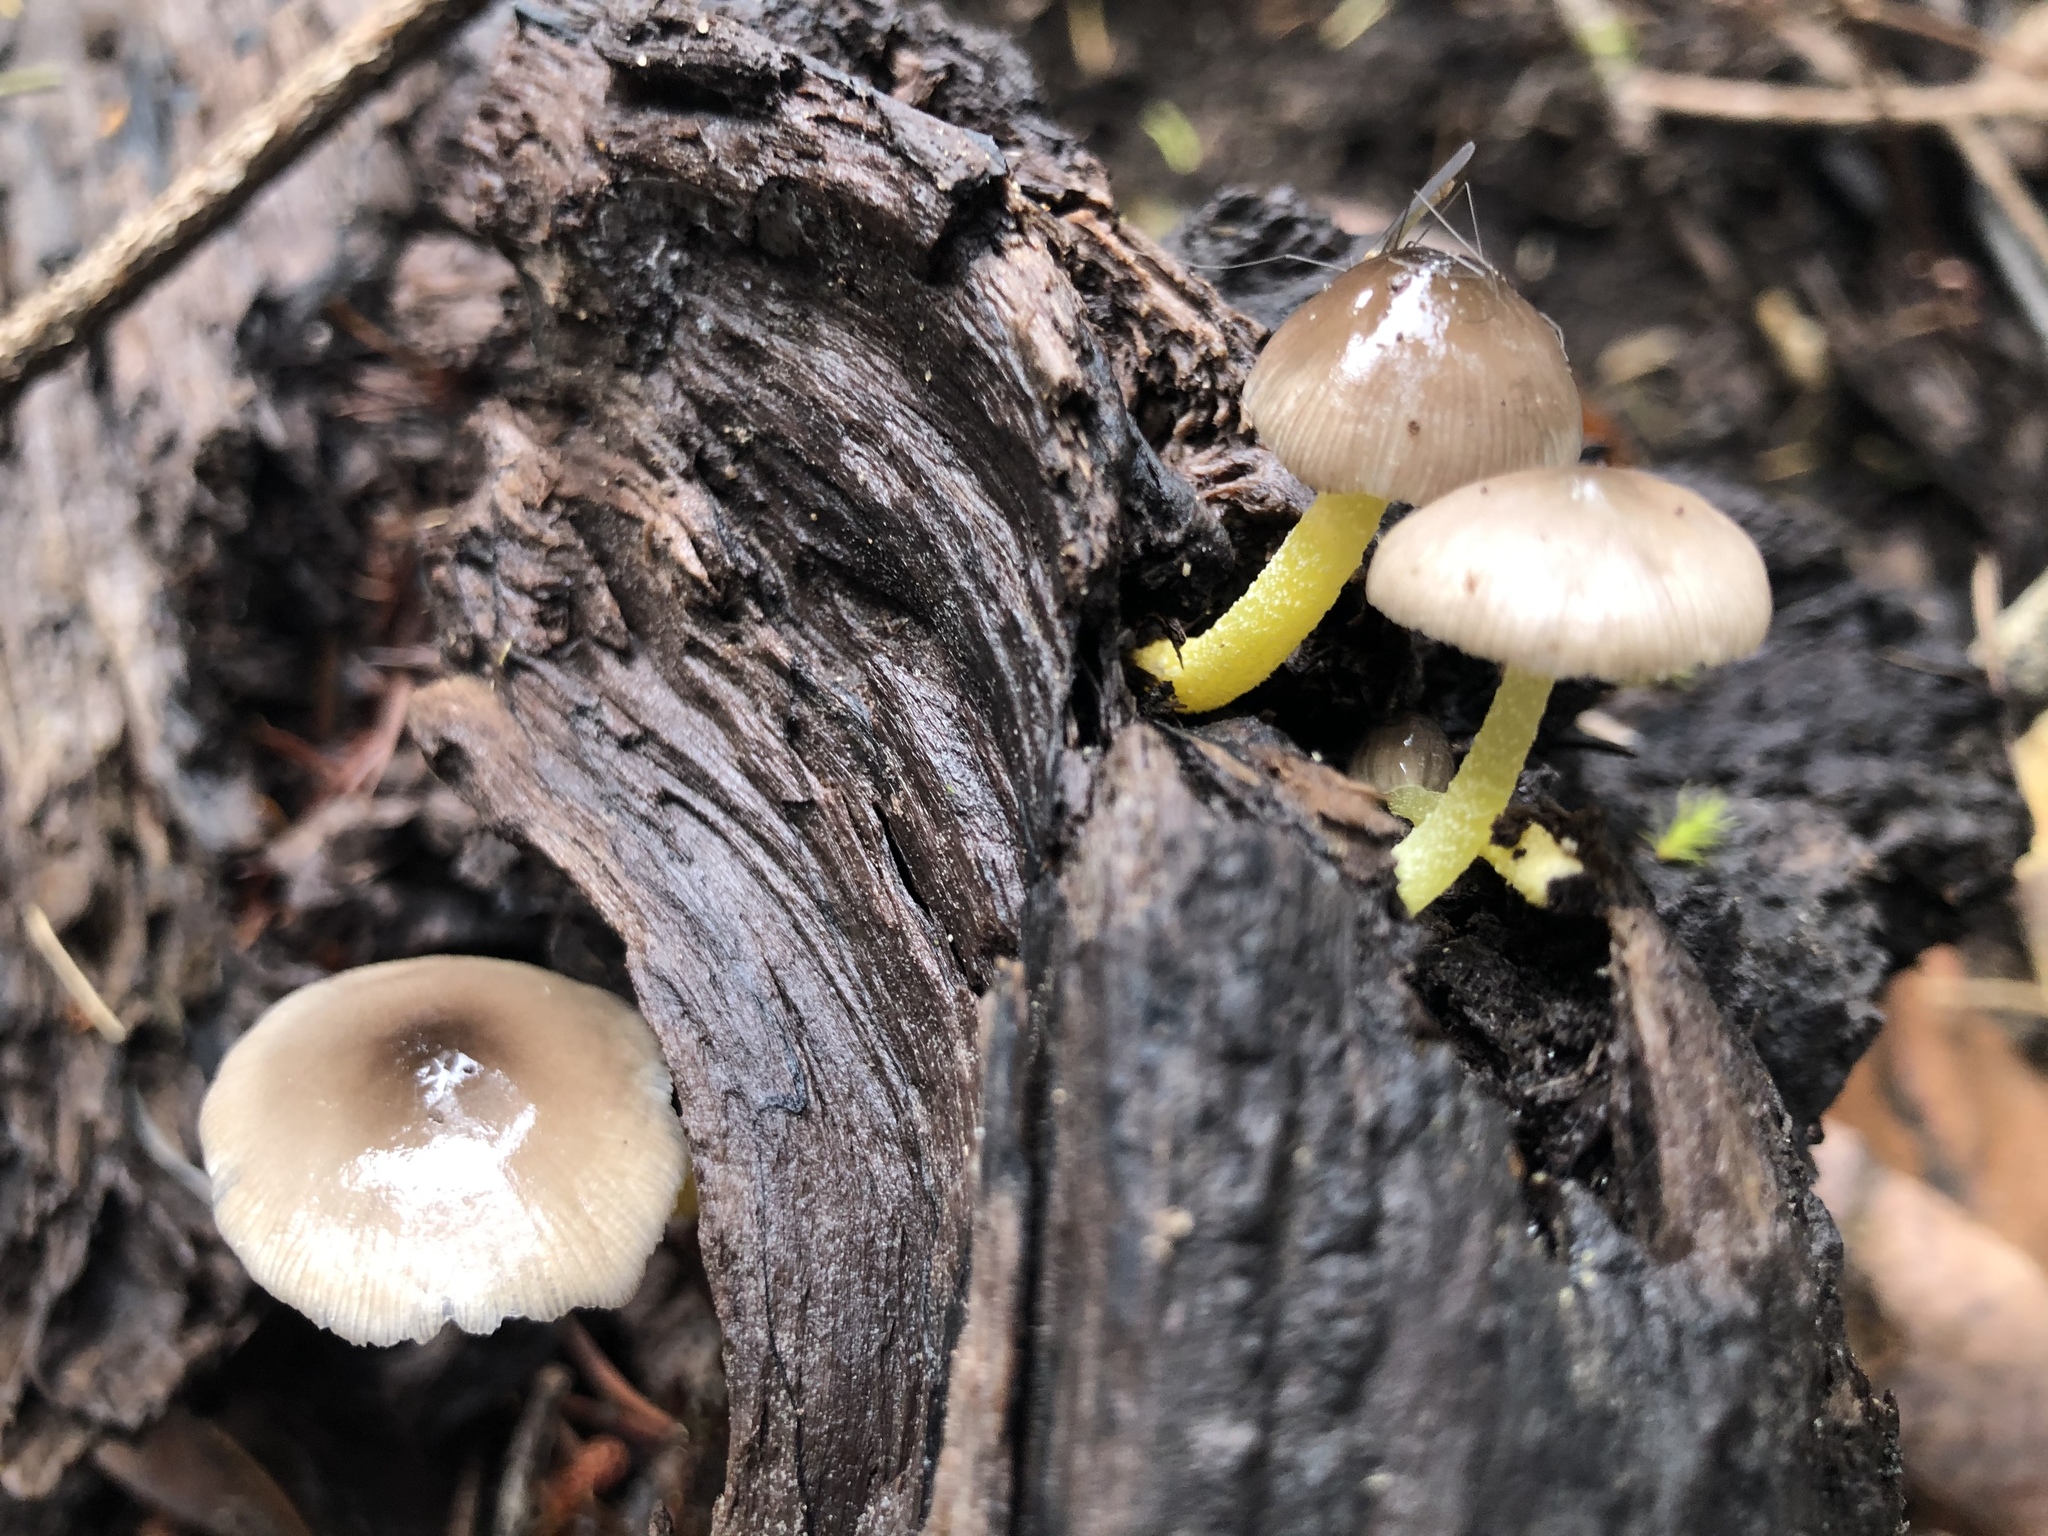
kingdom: Fungi
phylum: Basidiomycota
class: Agaricomycetes
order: Agaricales
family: Bolbitiaceae
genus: Bolbitius
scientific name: Bolbitius reticulatus
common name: Netted fieldcap
